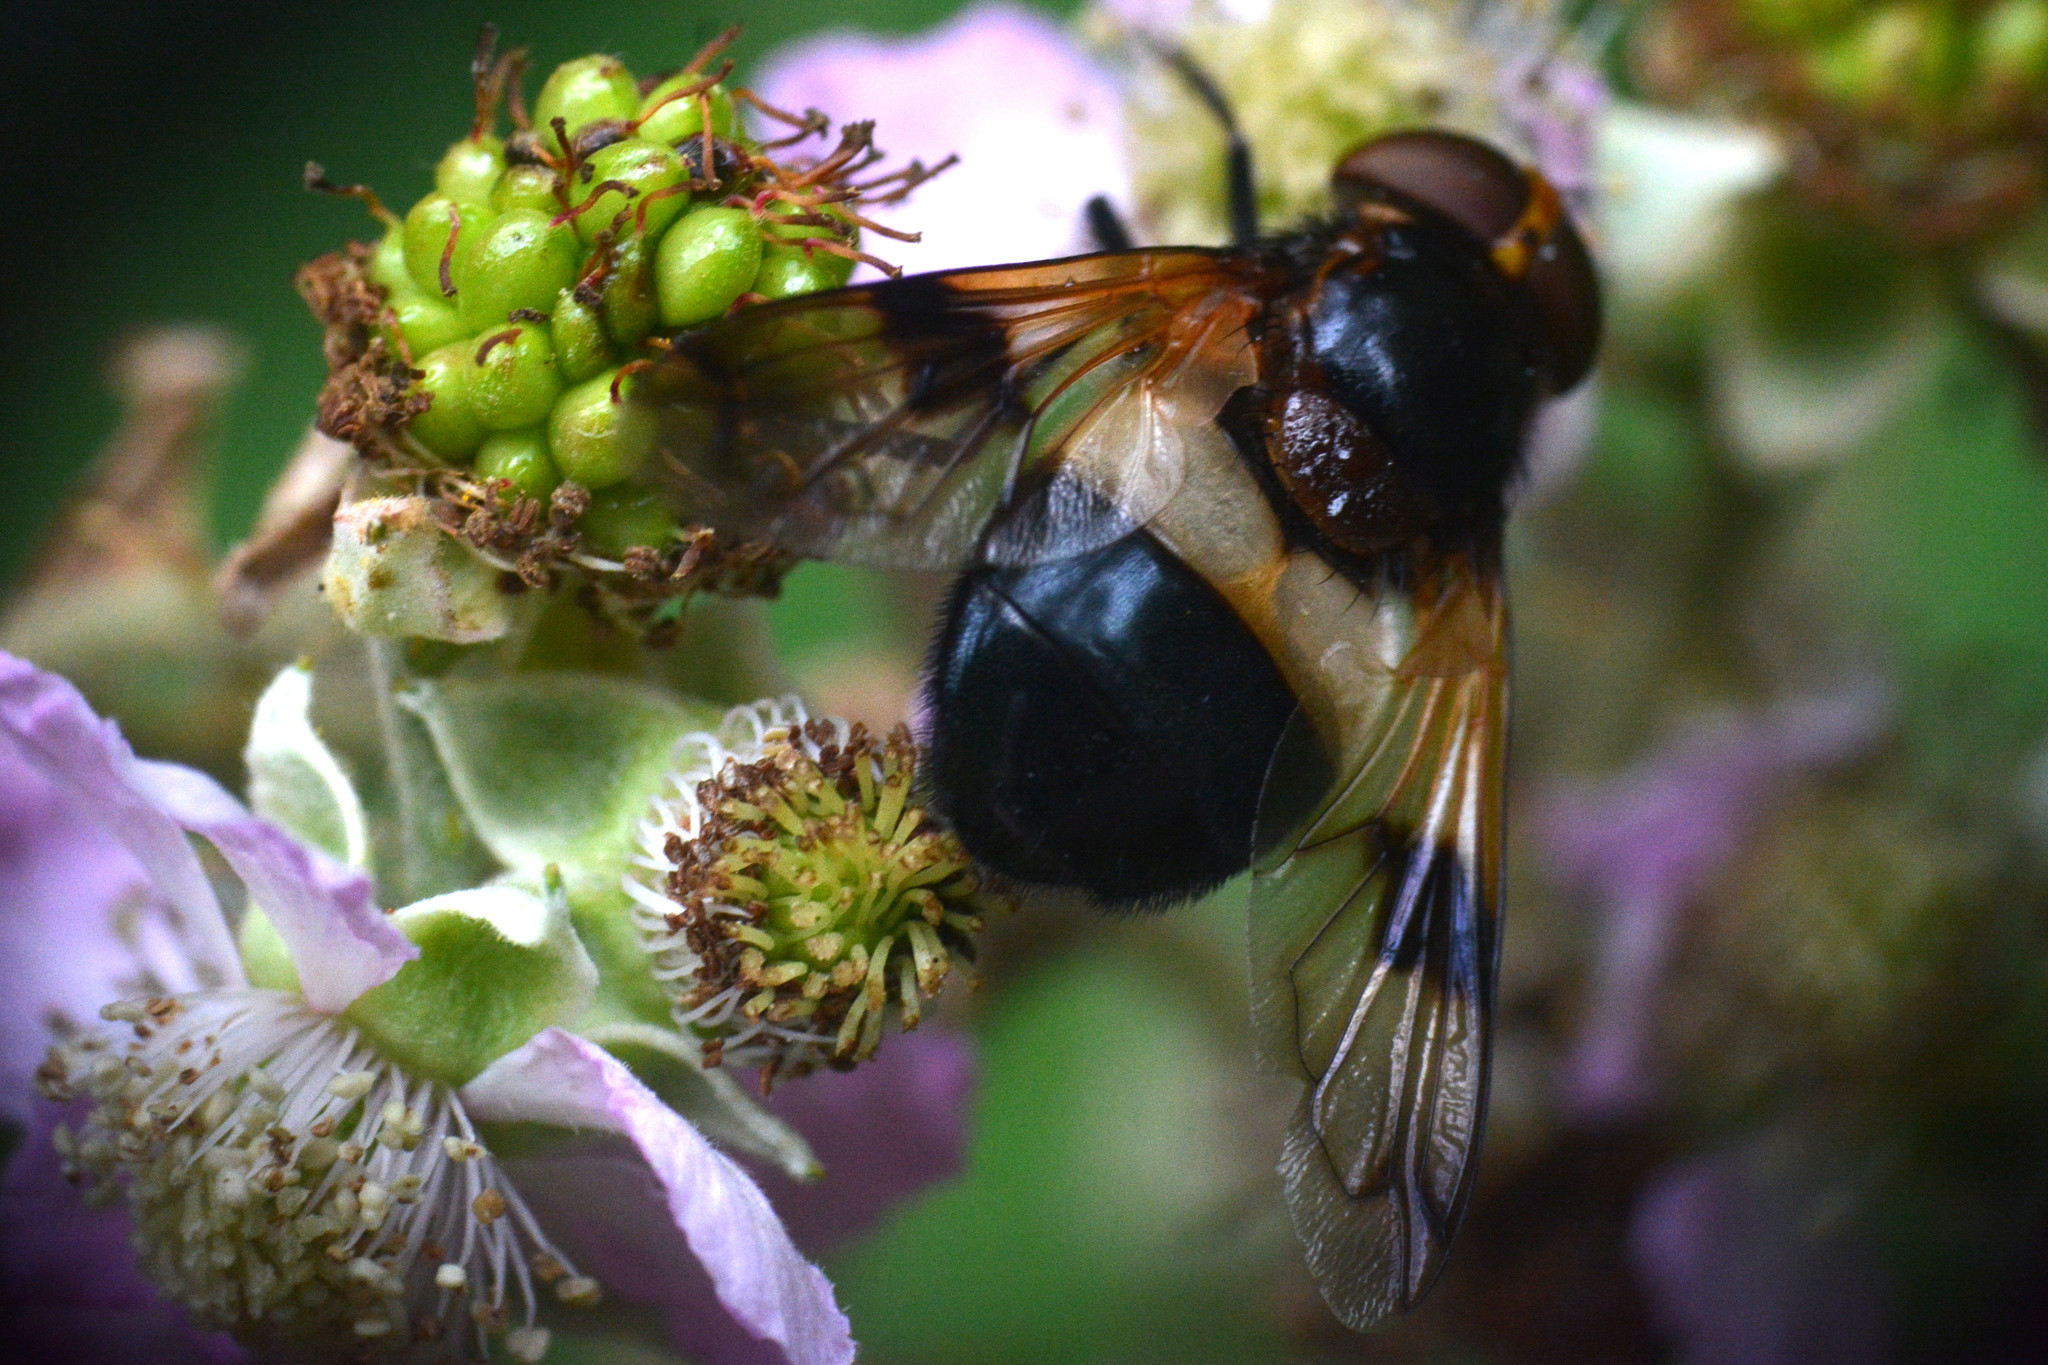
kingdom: Animalia
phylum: Arthropoda
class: Insecta
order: Diptera
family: Syrphidae
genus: Volucella
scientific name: Volucella pellucens
